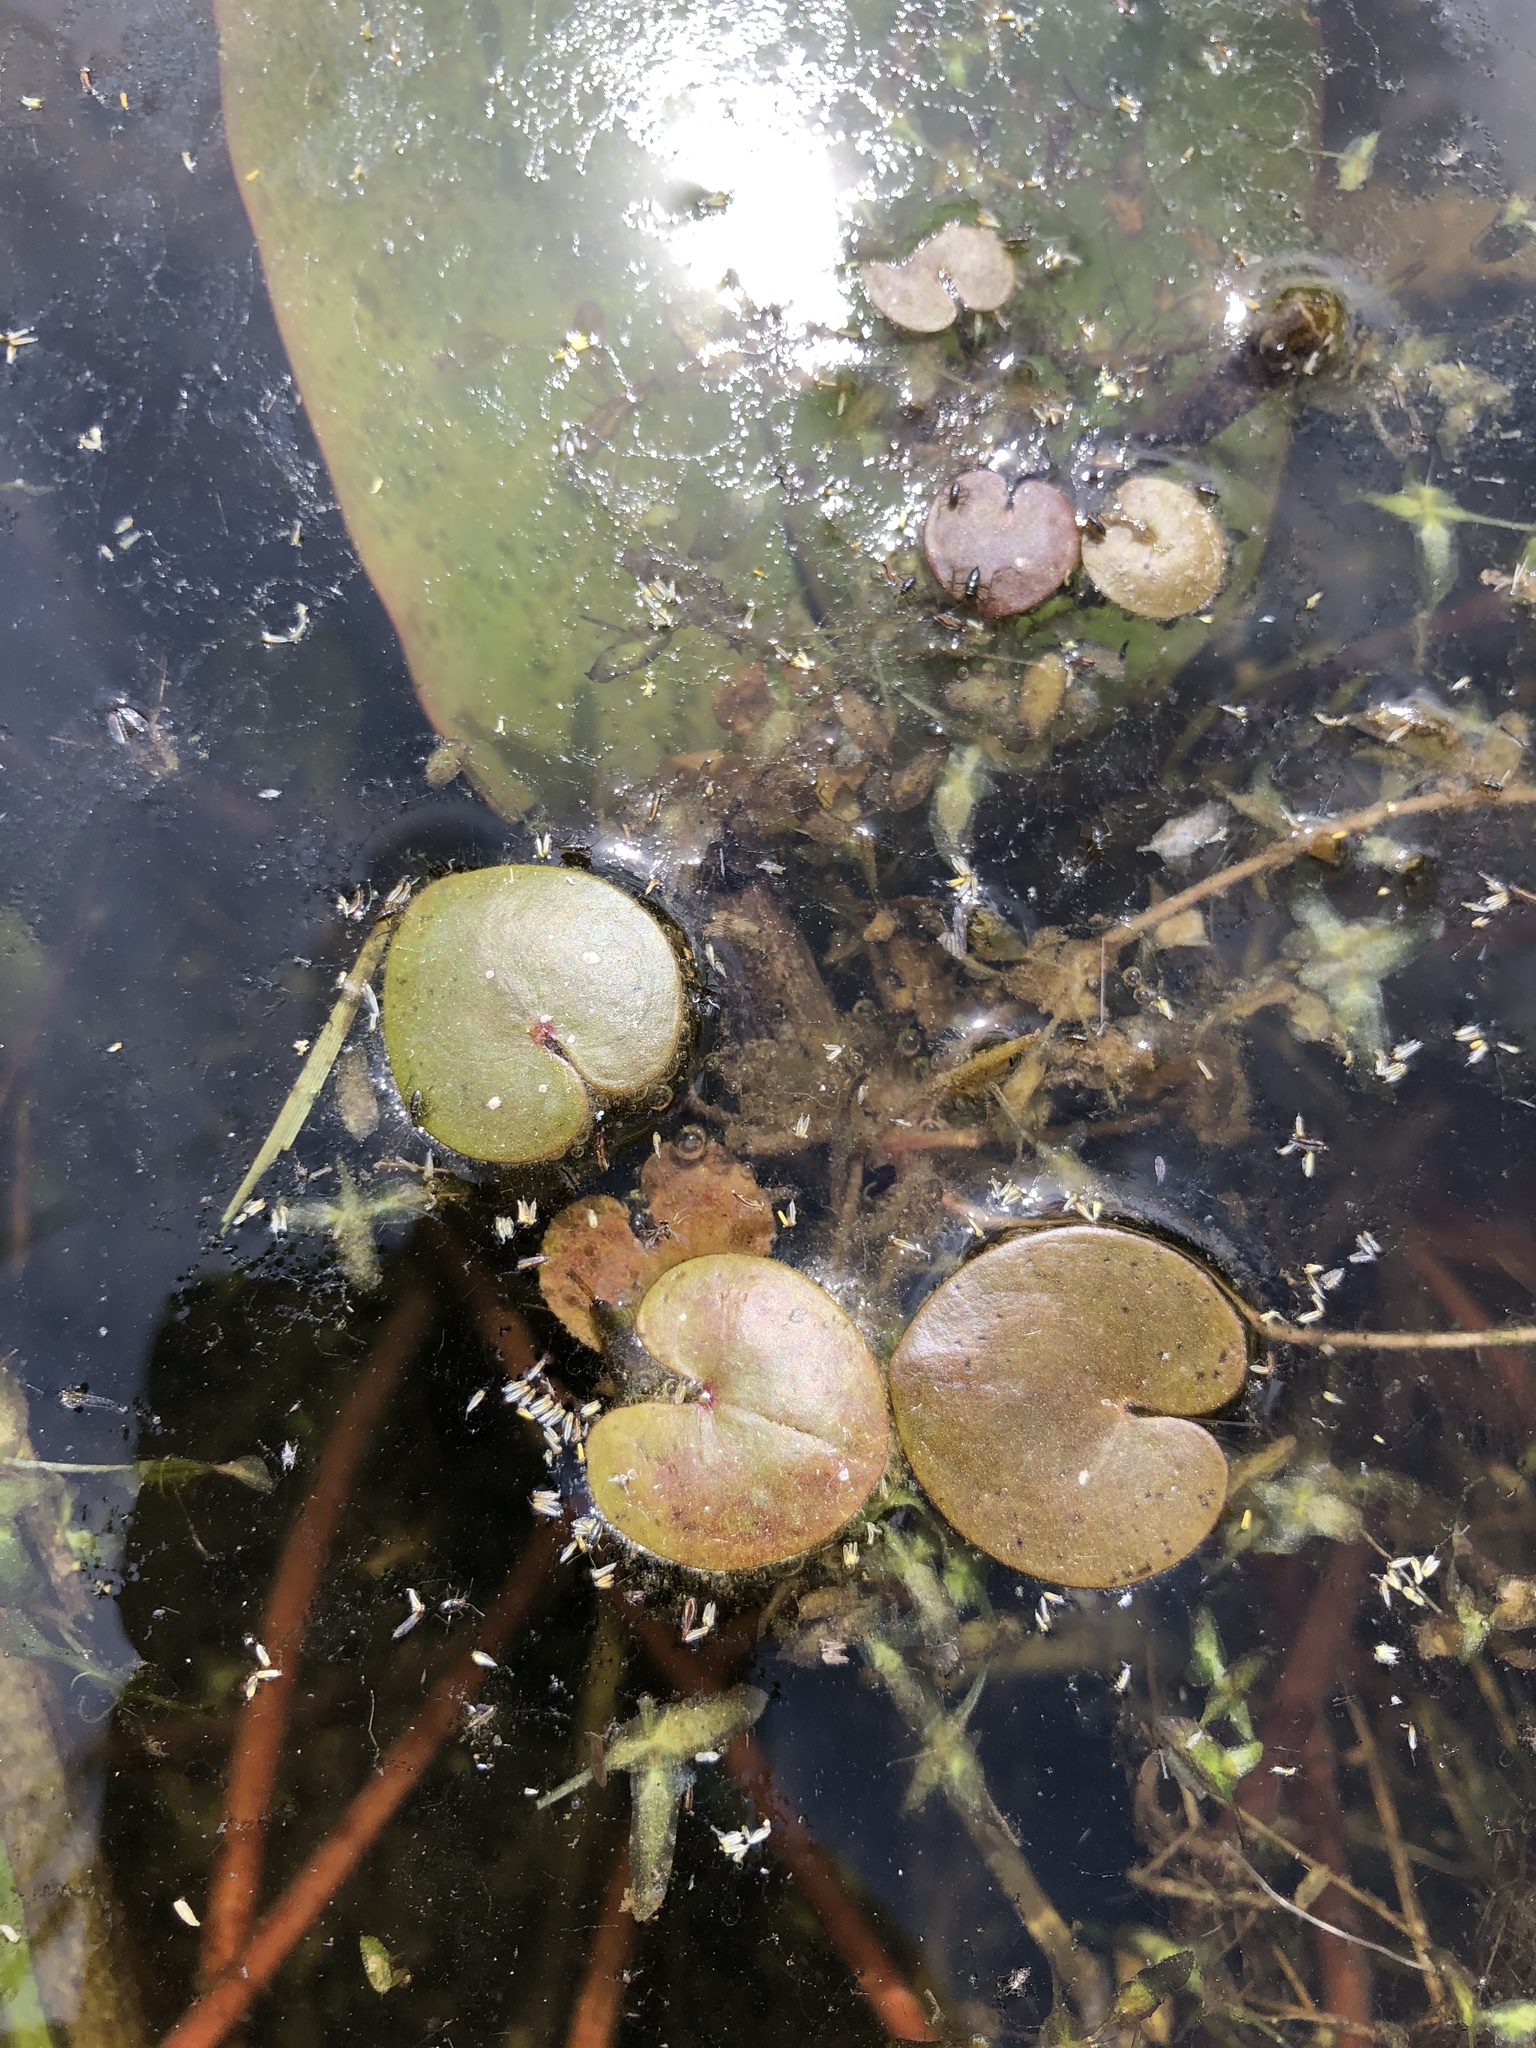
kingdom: Plantae
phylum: Tracheophyta
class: Liliopsida
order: Alismatales
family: Hydrocharitaceae
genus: Hydrocharis
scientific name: Hydrocharis morsus-ranae
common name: Frogbit
